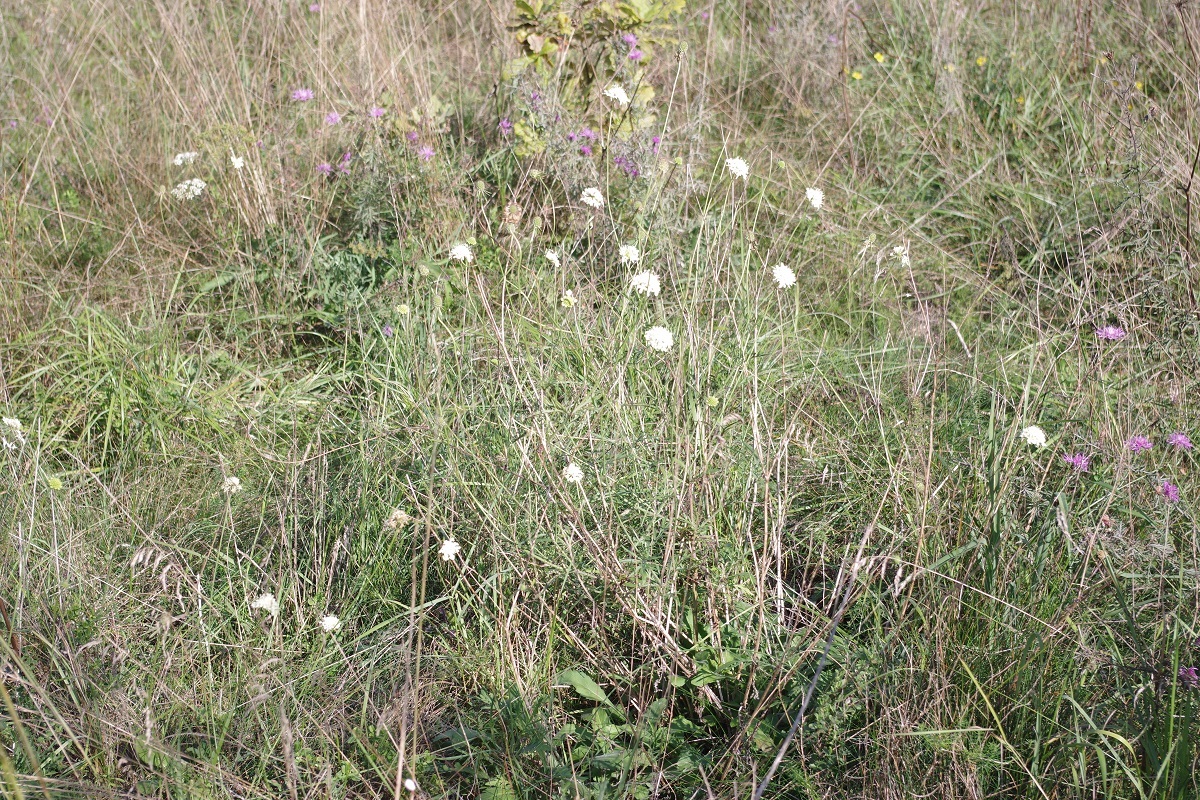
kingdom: Plantae
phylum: Tracheophyta
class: Magnoliopsida
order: Dipsacales
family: Caprifoliaceae
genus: Scabiosa
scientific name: Scabiosa ochroleuca
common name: Cream pincushions
